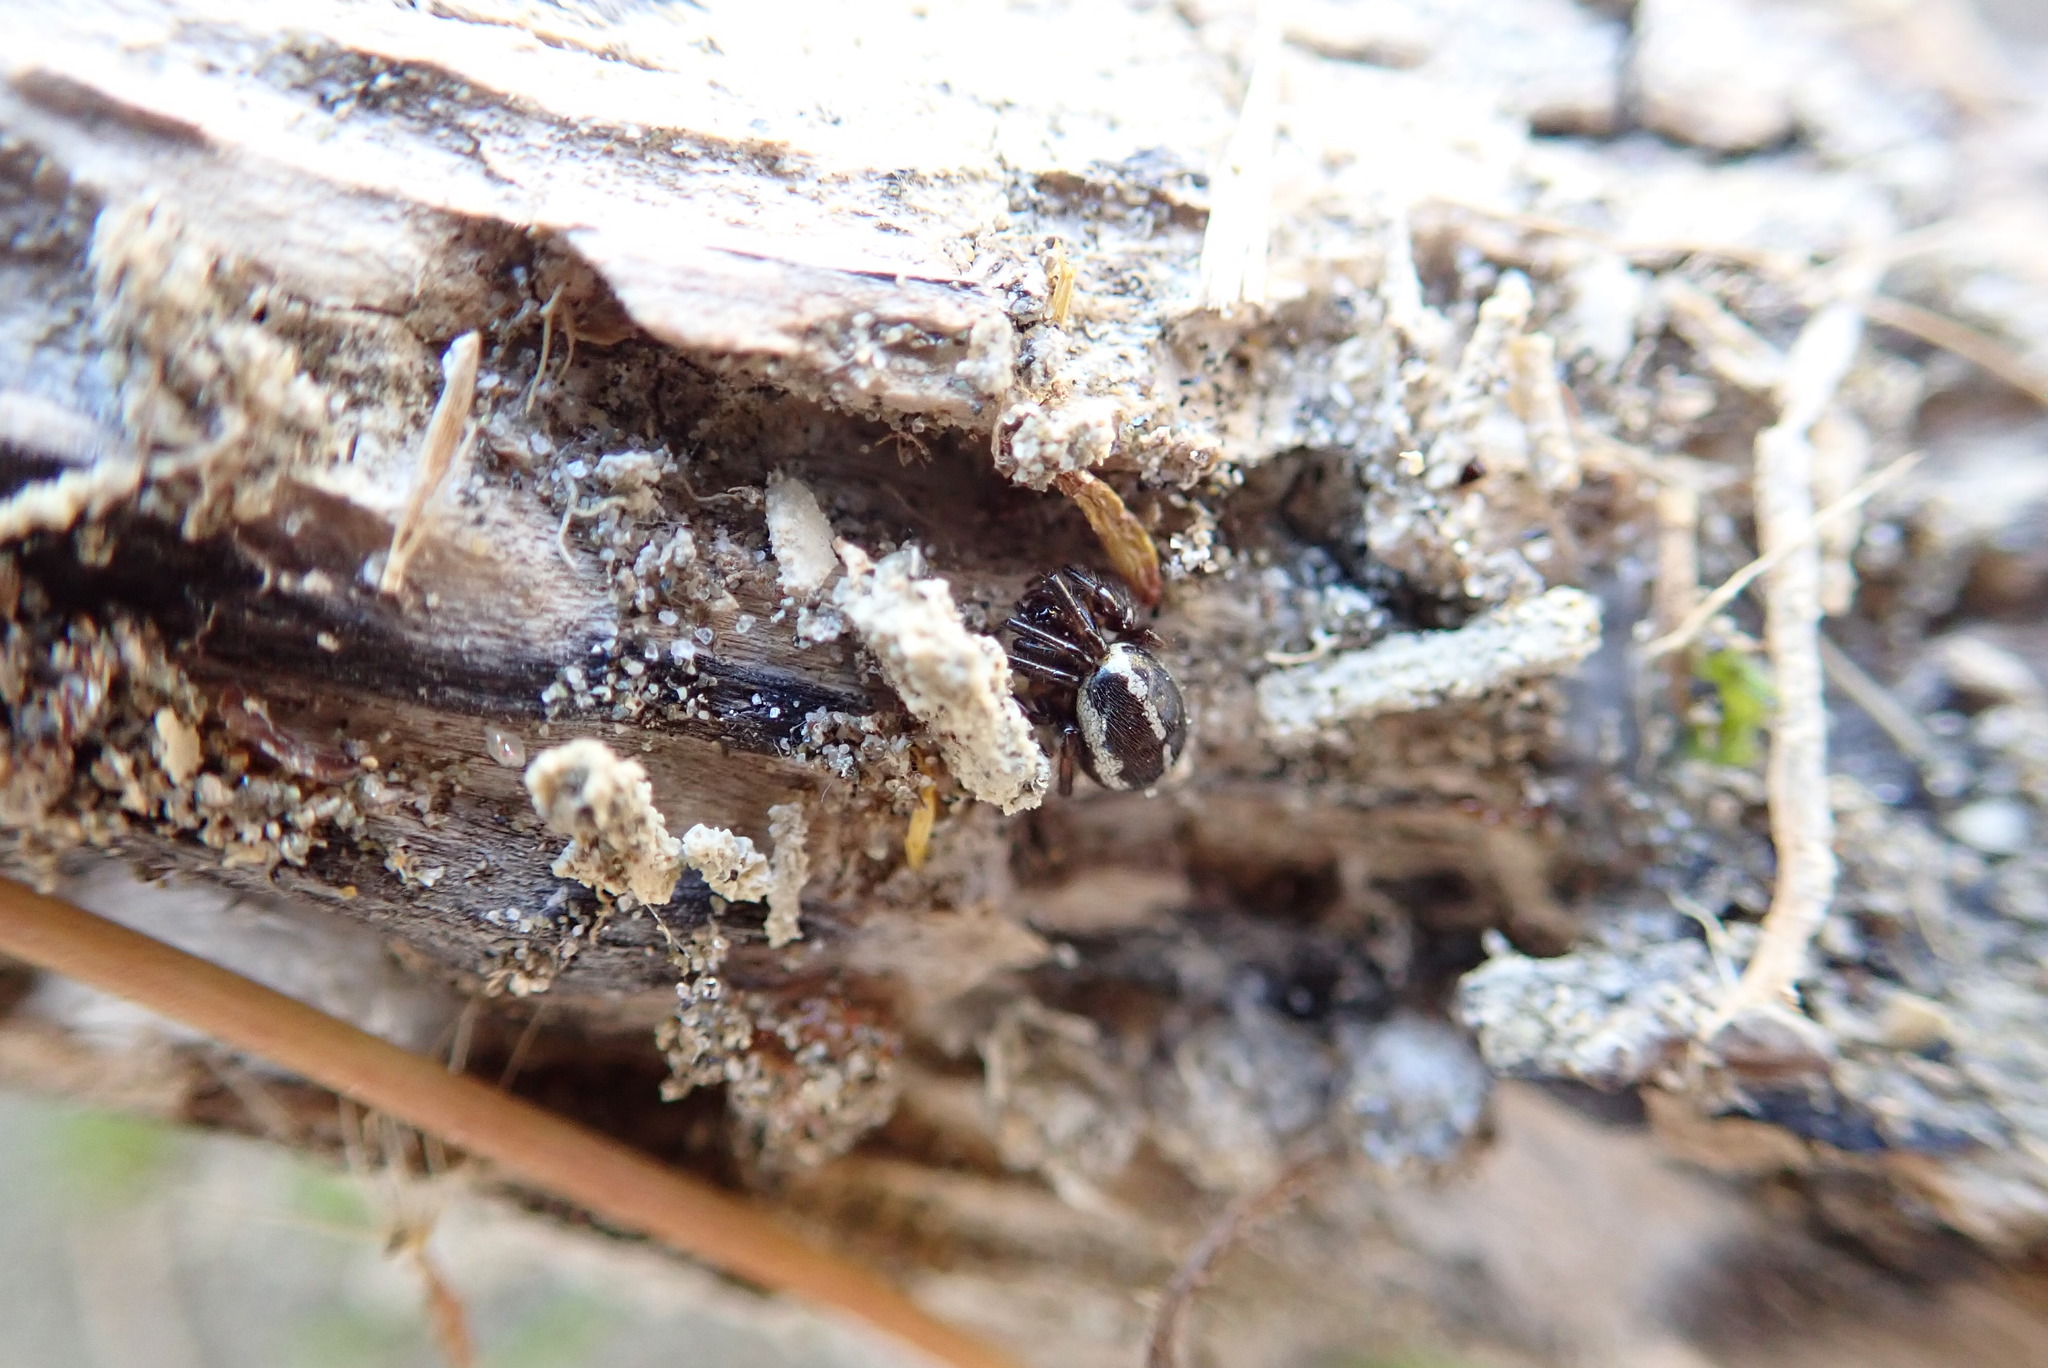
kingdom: Animalia
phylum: Arthropoda
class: Arachnida
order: Araneae
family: Theridiidae
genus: Steatoda
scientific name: Steatoda lepida
